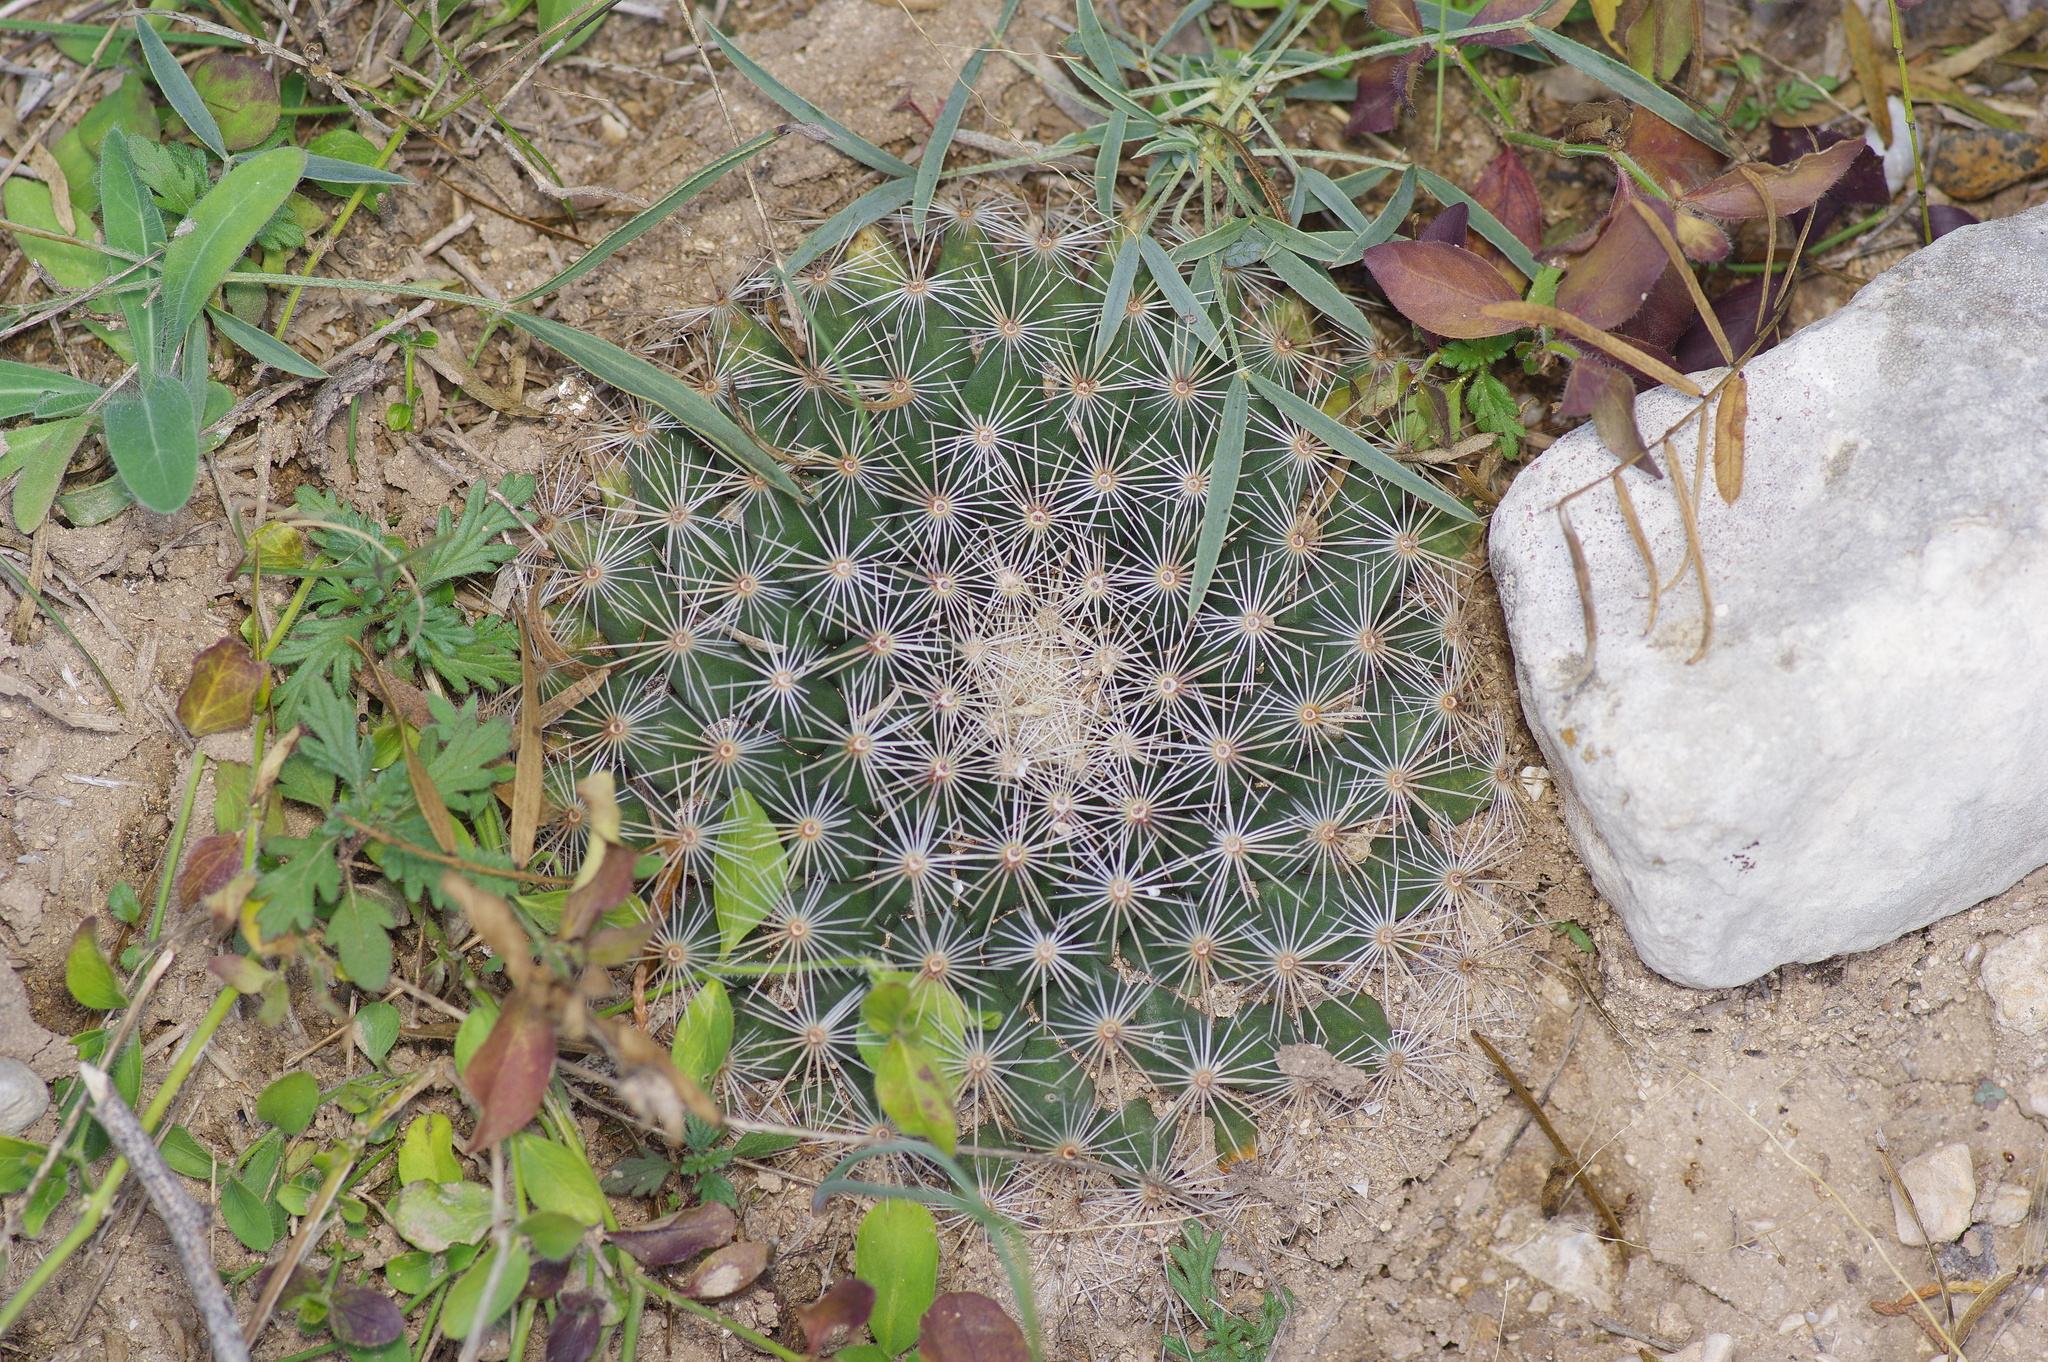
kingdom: Plantae
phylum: Tracheophyta
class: Magnoliopsida
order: Caryophyllales
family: Cactaceae
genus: Mammillaria
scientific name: Mammillaria heyderi
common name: Little nipple cactus
